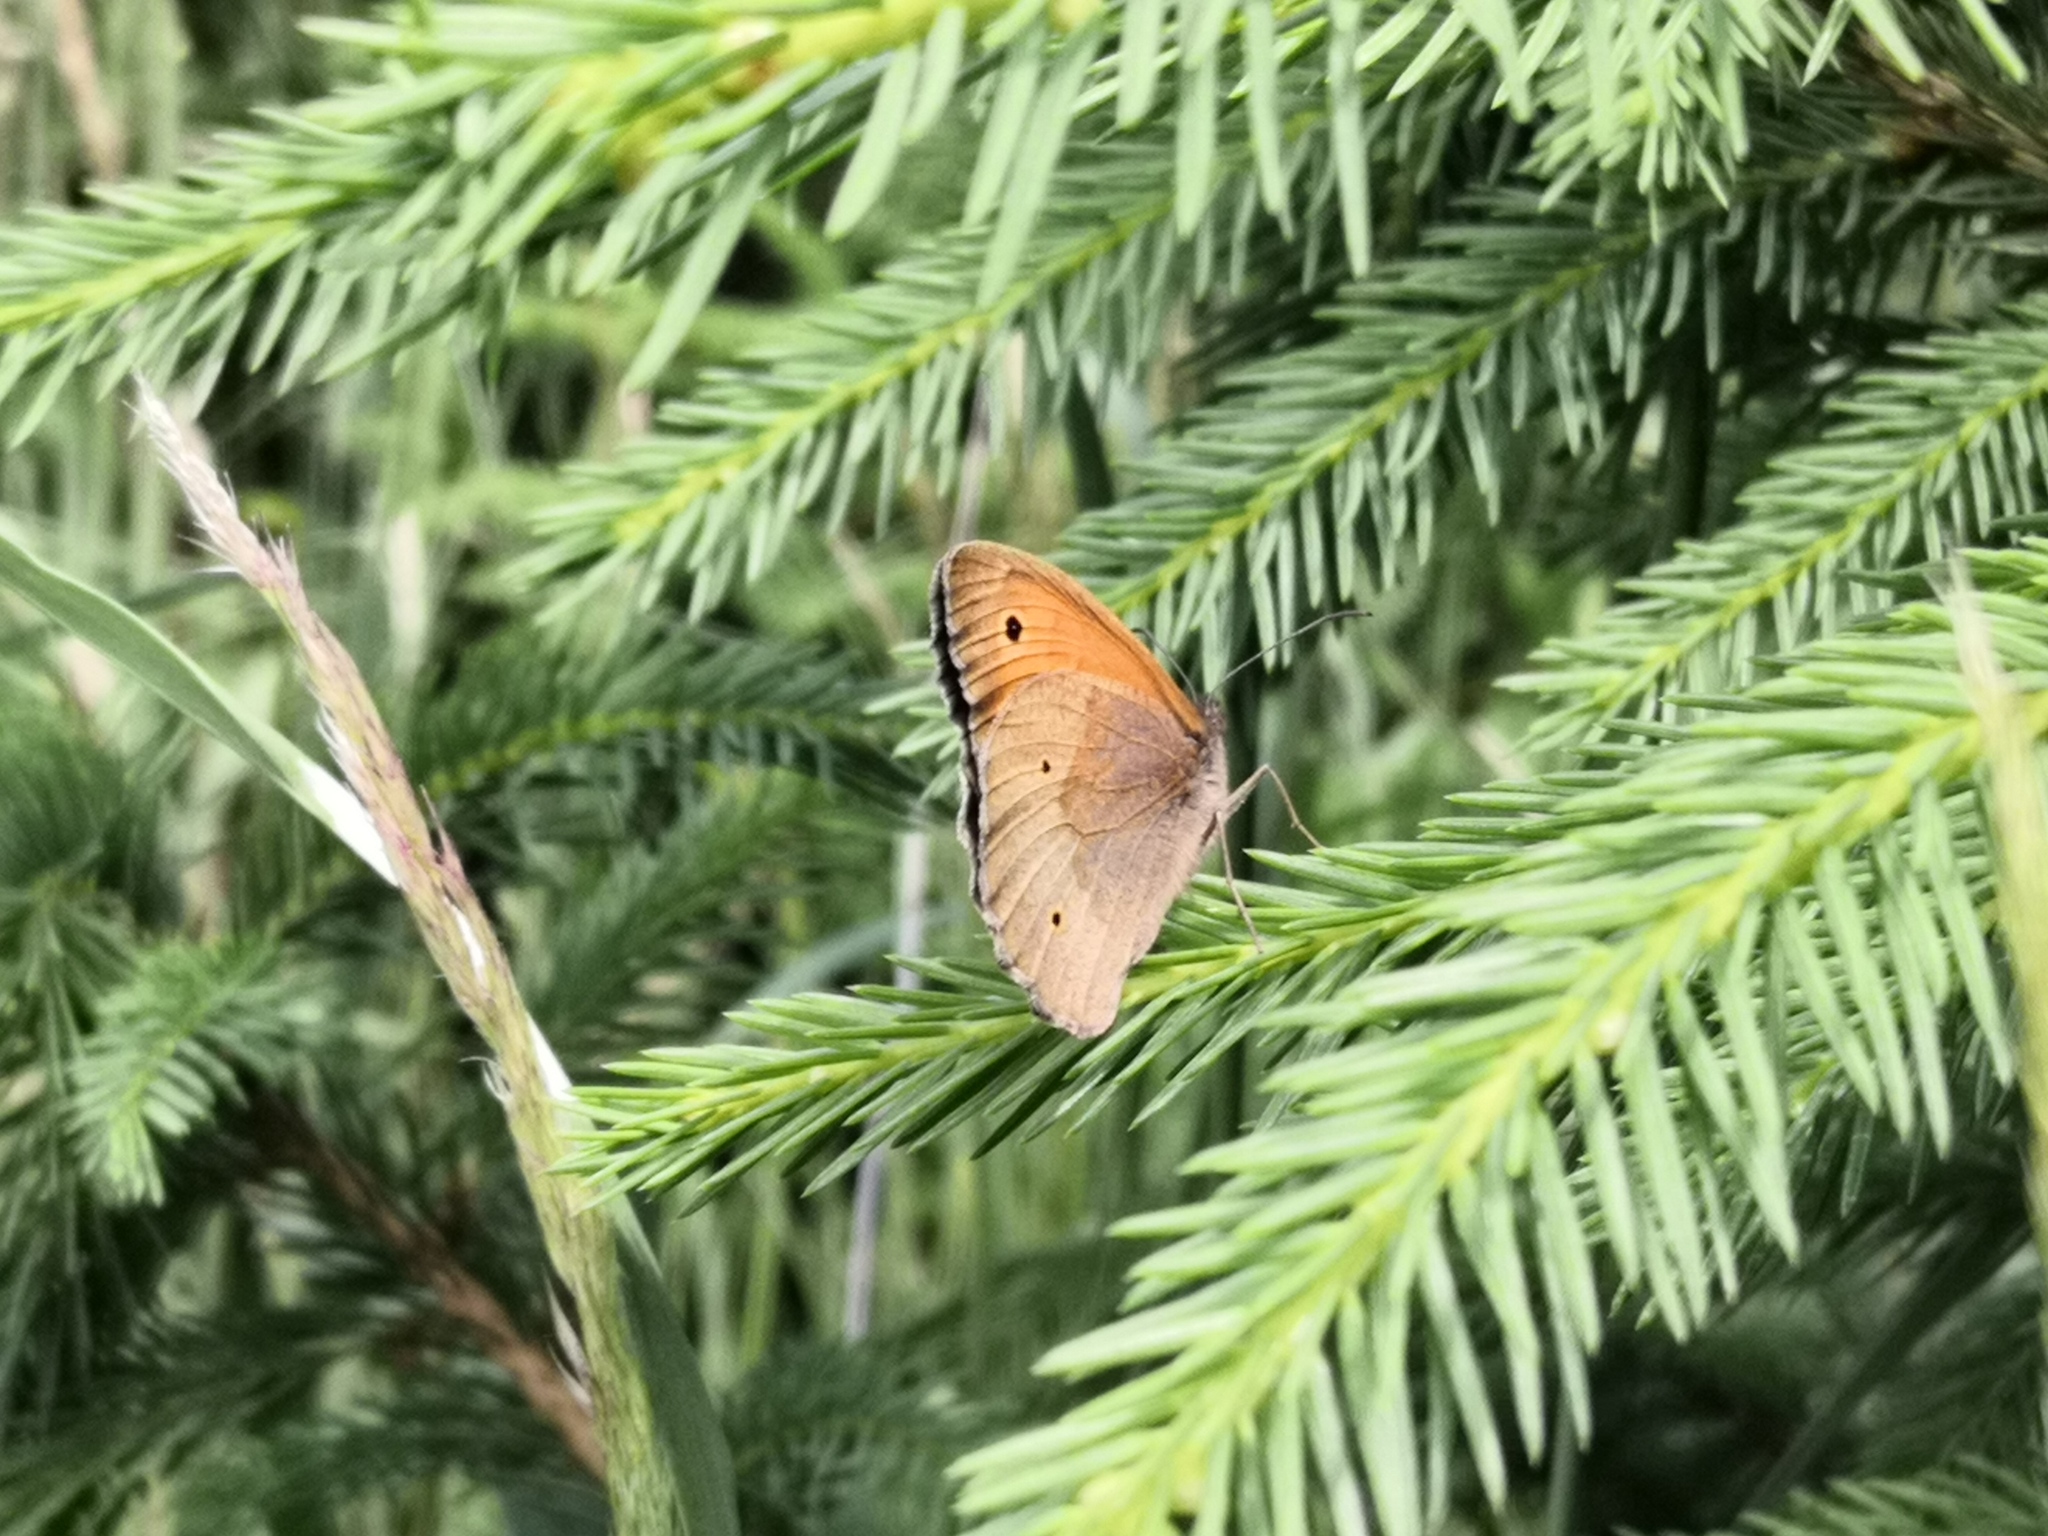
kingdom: Animalia
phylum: Arthropoda
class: Insecta
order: Lepidoptera
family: Nymphalidae
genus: Maniola
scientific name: Maniola jurtina
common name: Meadow brown
